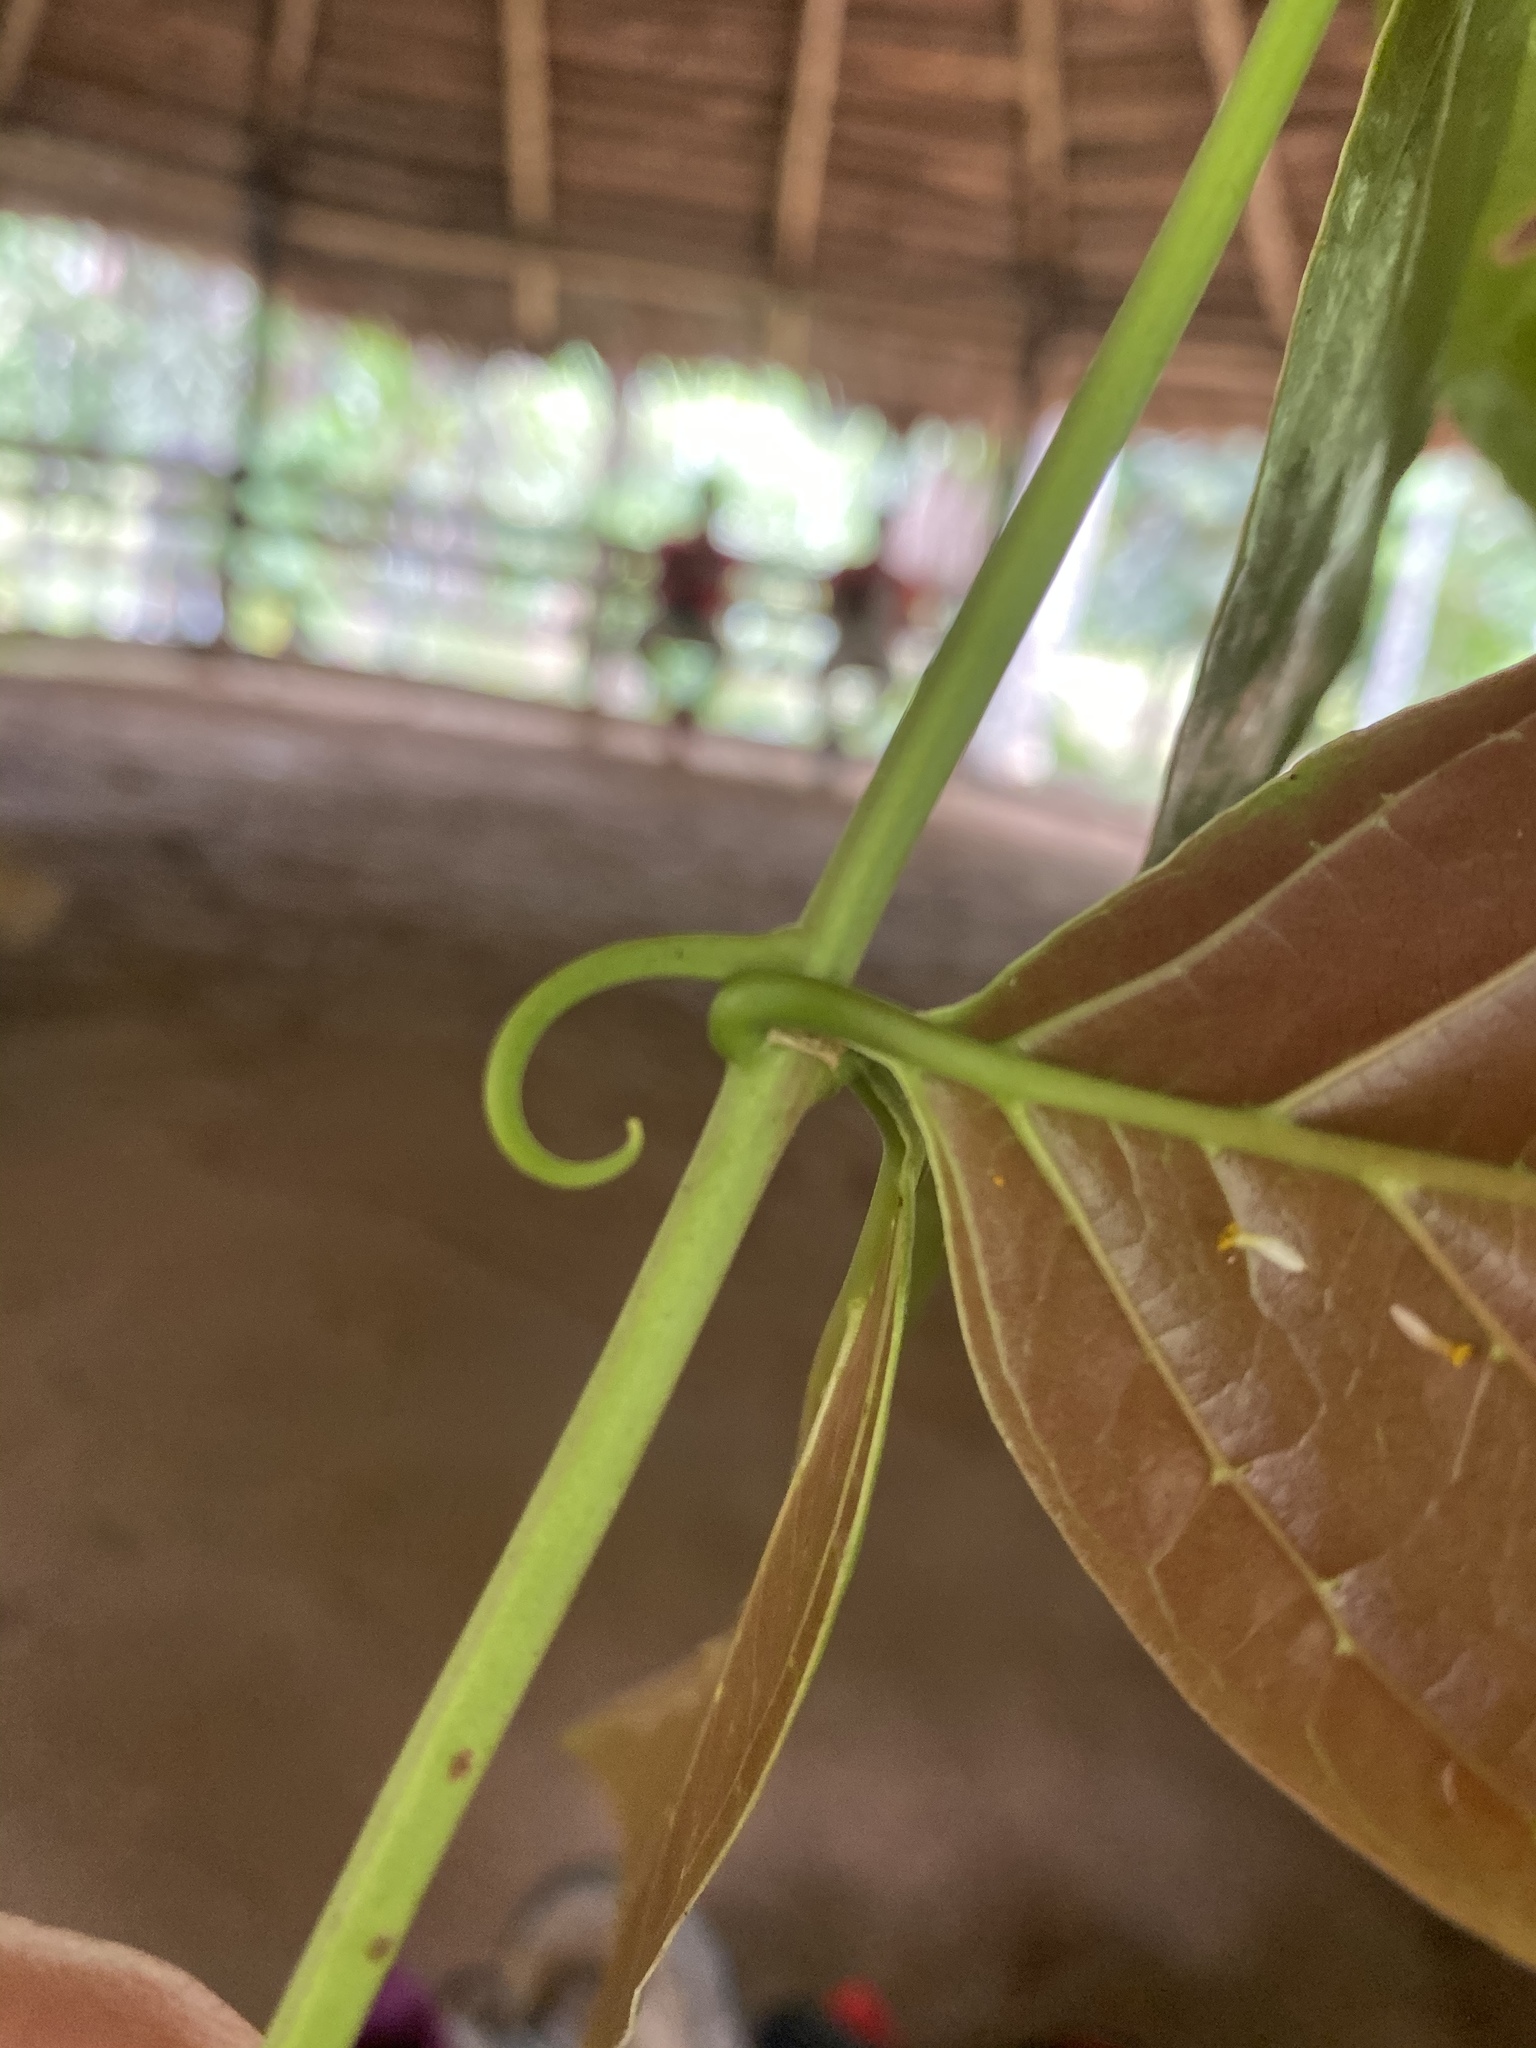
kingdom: Plantae
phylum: Tracheophyta
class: Magnoliopsida
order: Gentianales
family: Rubiaceae
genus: Uncaria
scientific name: Uncaria guianensis
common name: Cat's-claw
